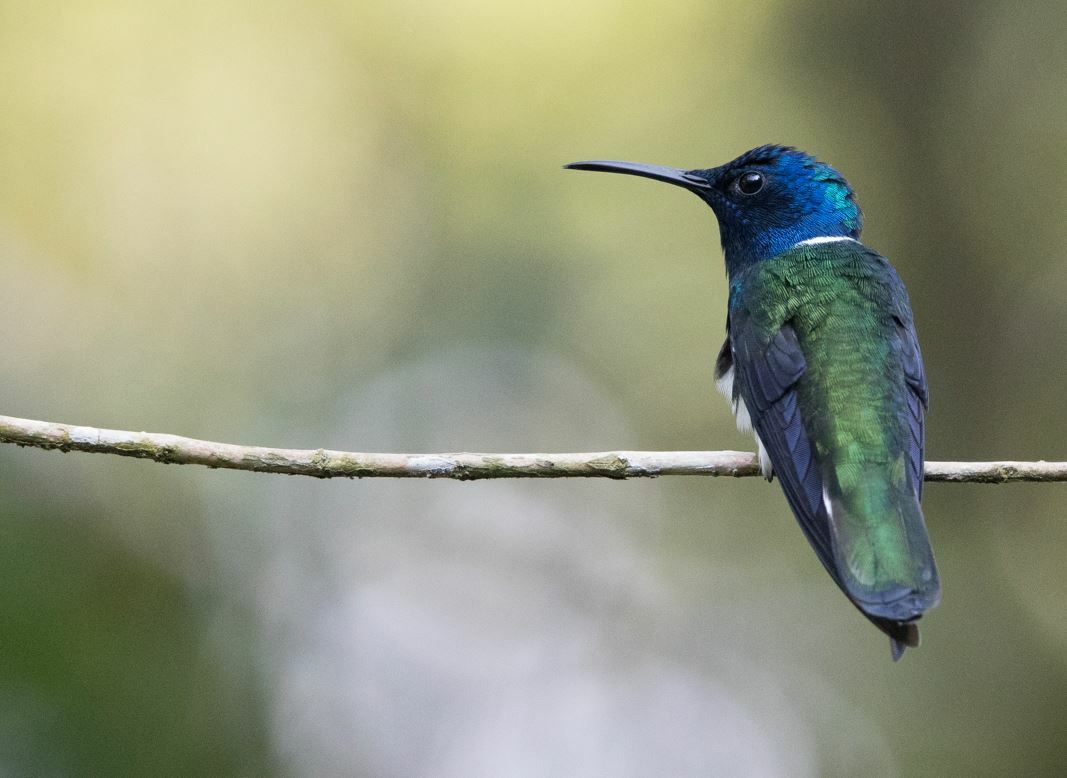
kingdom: Animalia
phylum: Chordata
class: Aves
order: Apodiformes
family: Trochilidae
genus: Florisuga
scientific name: Florisuga mellivora
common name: White-necked jacobin
